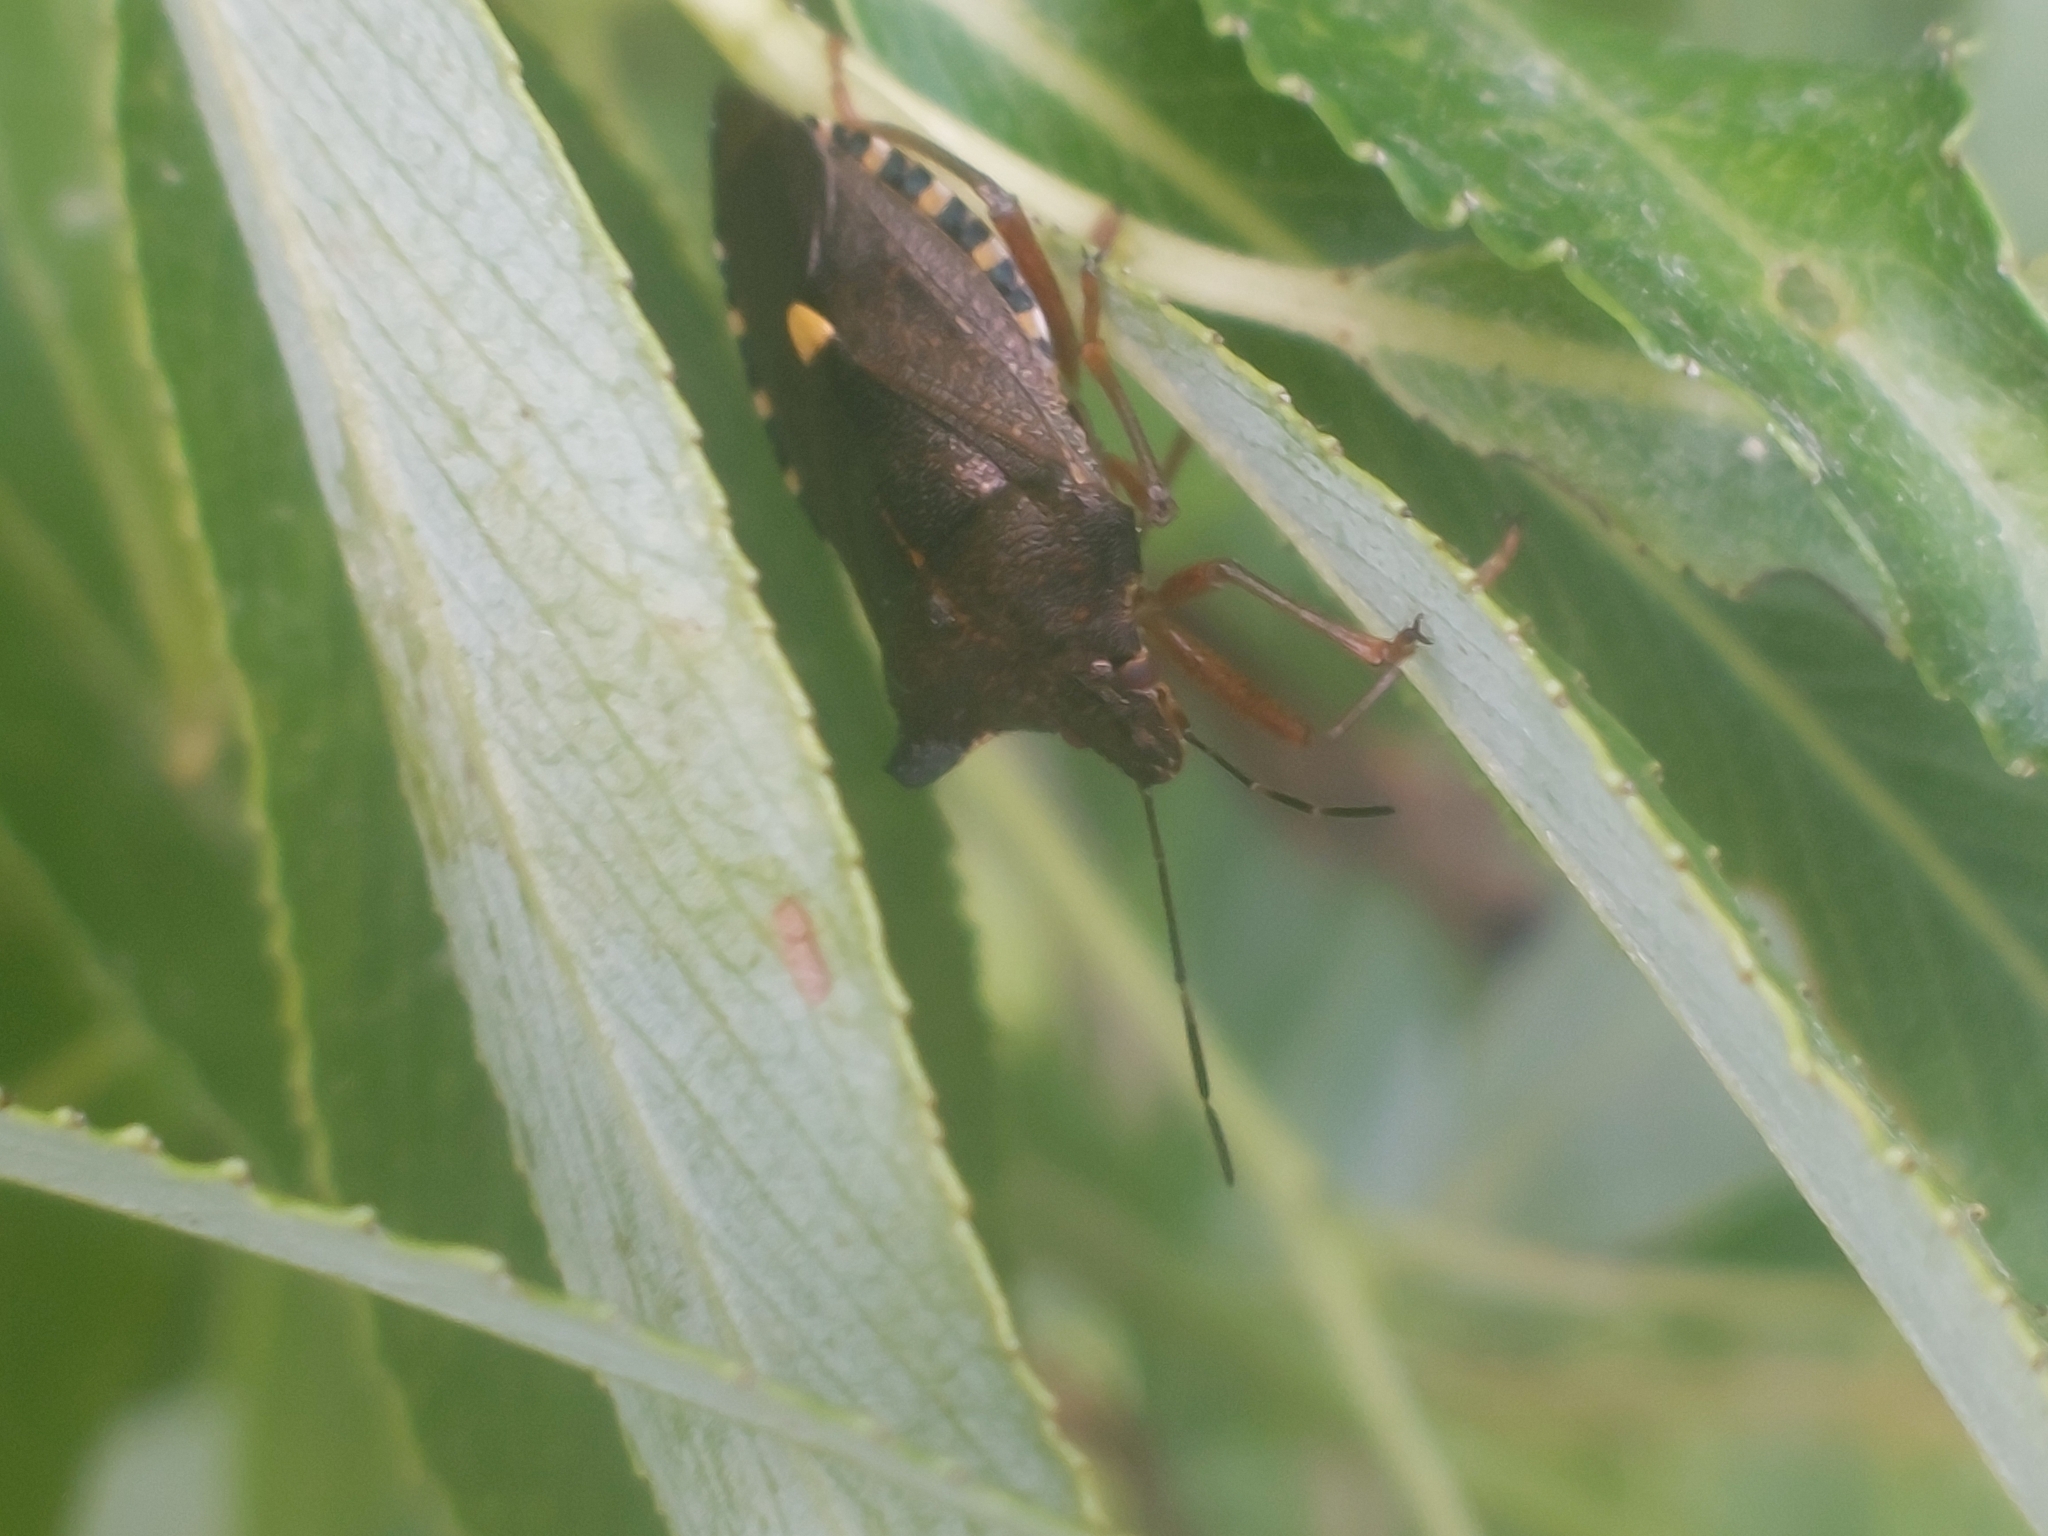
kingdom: Animalia
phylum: Arthropoda
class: Insecta
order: Hemiptera
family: Pentatomidae
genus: Pentatoma
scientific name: Pentatoma rufipes
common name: Forest bug
